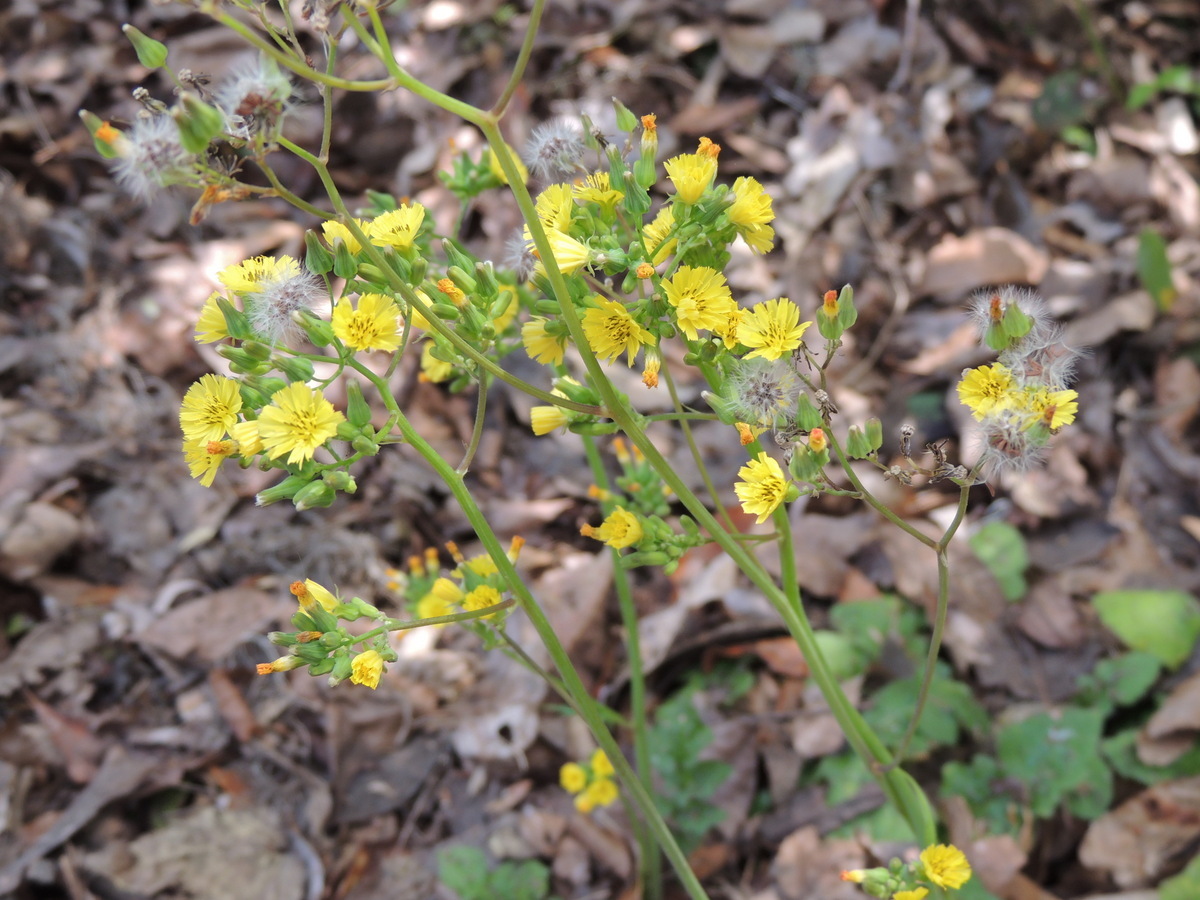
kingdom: Plantae
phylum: Tracheophyta
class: Magnoliopsida
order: Asterales
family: Asteraceae
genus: Youngia
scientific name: Youngia japonica
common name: Oriental false hawksbeard
